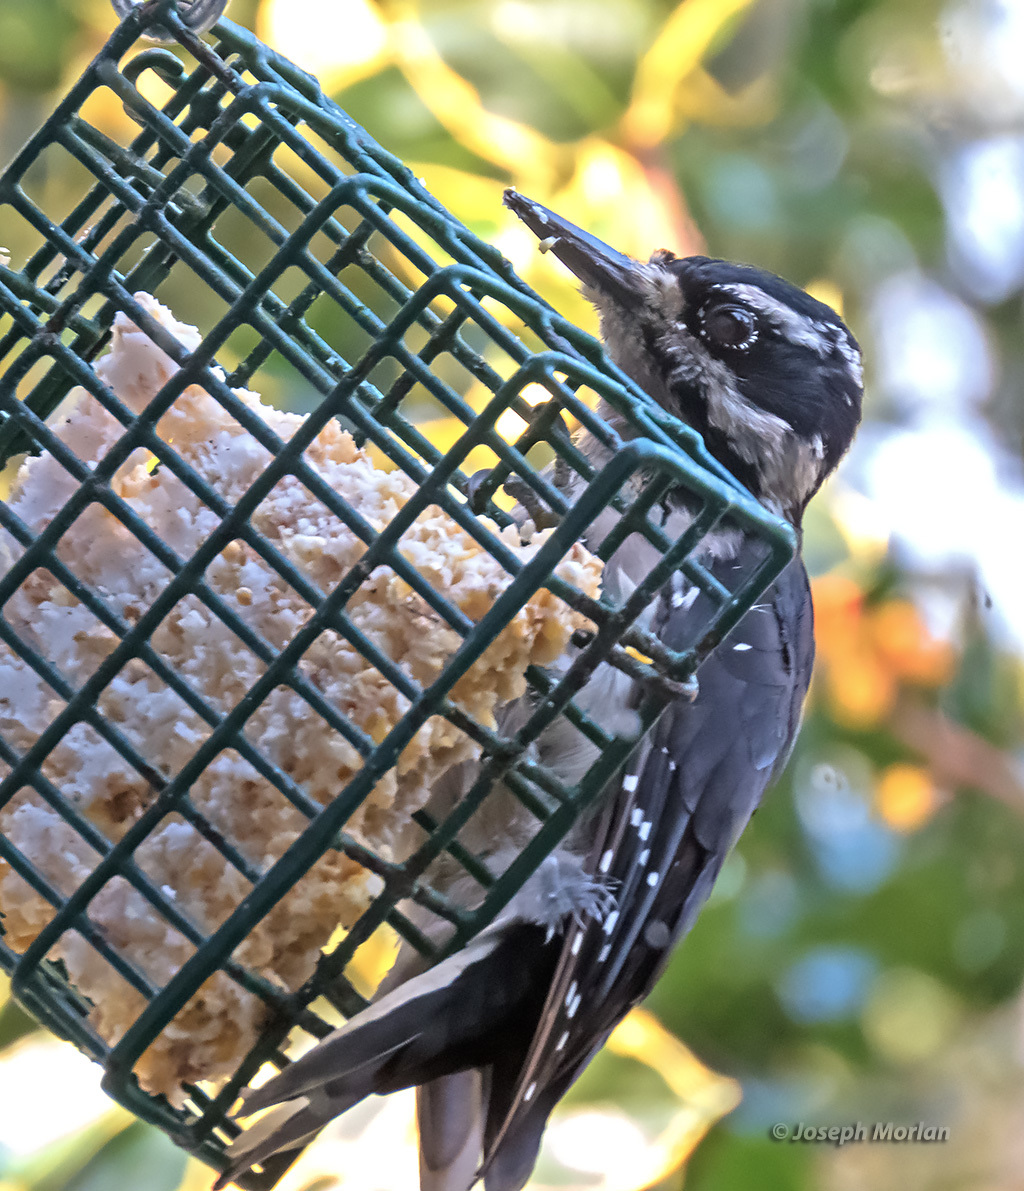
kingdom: Animalia
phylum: Chordata
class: Aves
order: Piciformes
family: Picidae
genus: Leuconotopicus
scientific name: Leuconotopicus villosus
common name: Hairy woodpecker
